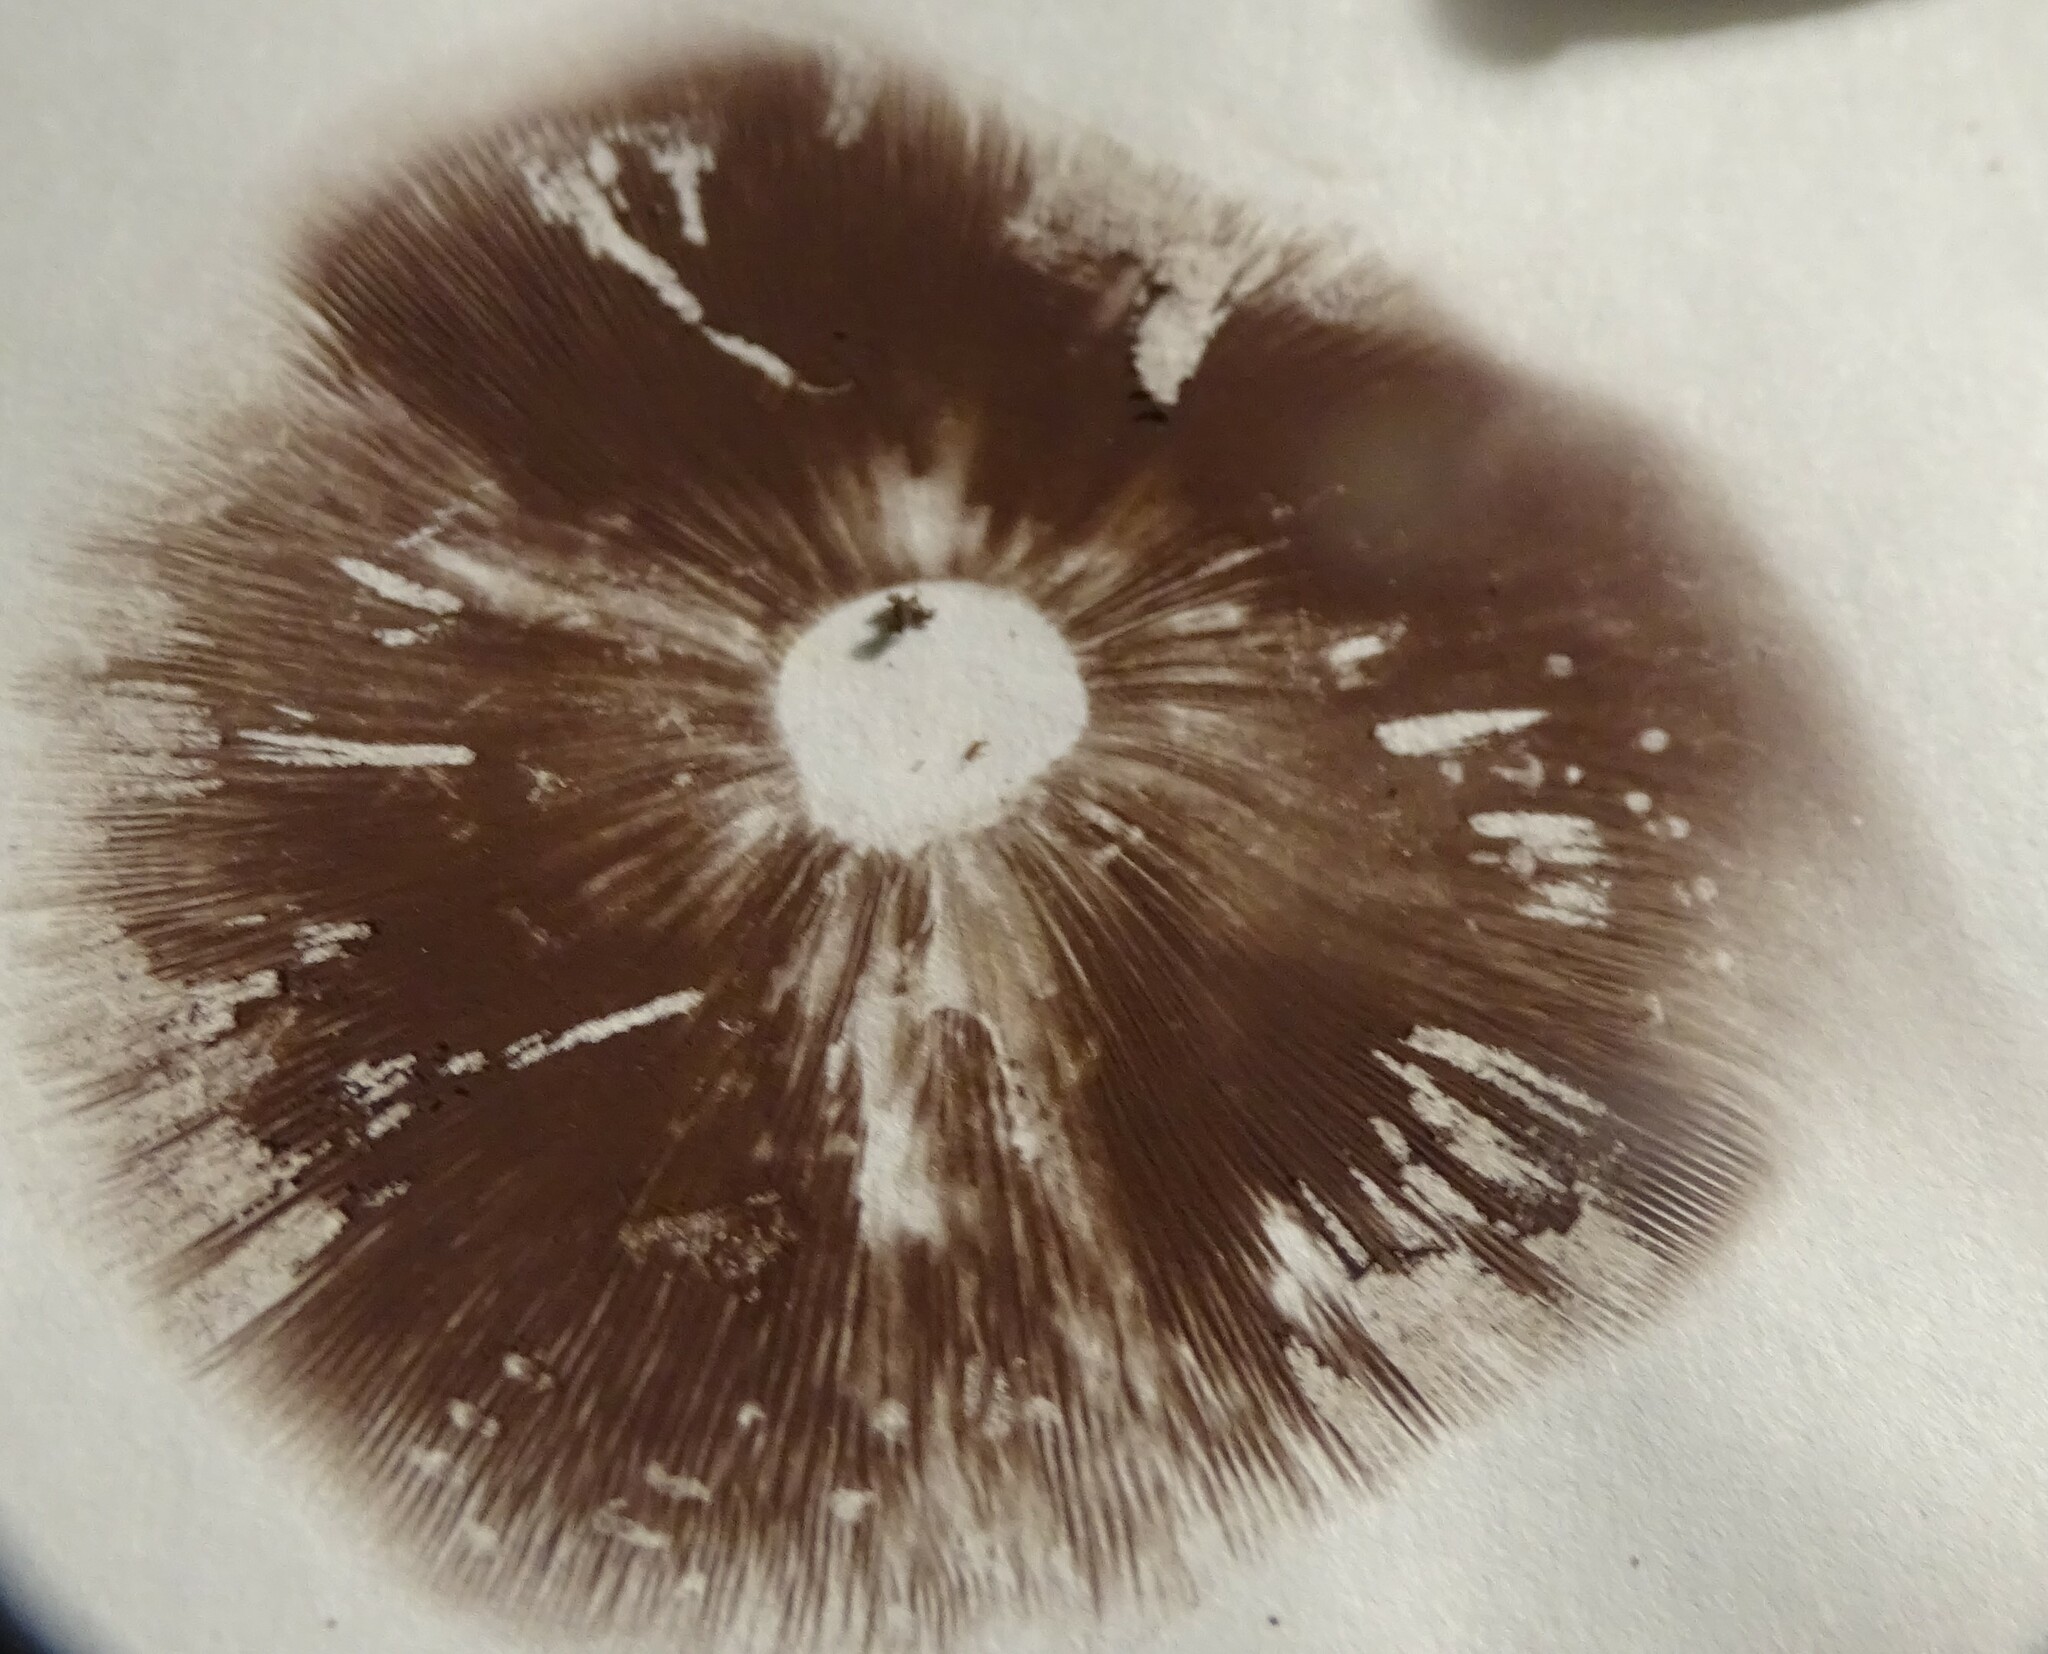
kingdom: Fungi
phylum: Basidiomycota
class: Agaricomycetes
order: Agaricales
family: Strophariaceae
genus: Hypholoma
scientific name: Hypholoma lateritium
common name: Brick caps
